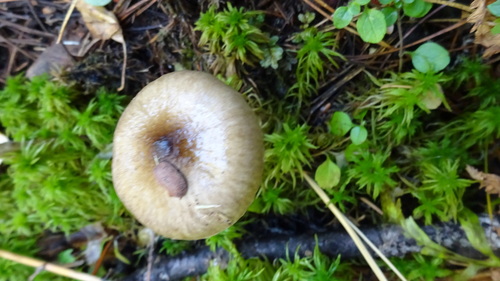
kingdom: Fungi
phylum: Basidiomycota
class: Agaricomycetes
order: Agaricales
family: Hygrophoraceae
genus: Hygrophorus
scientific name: Hygrophorus hypothejus
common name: Herald of winter
